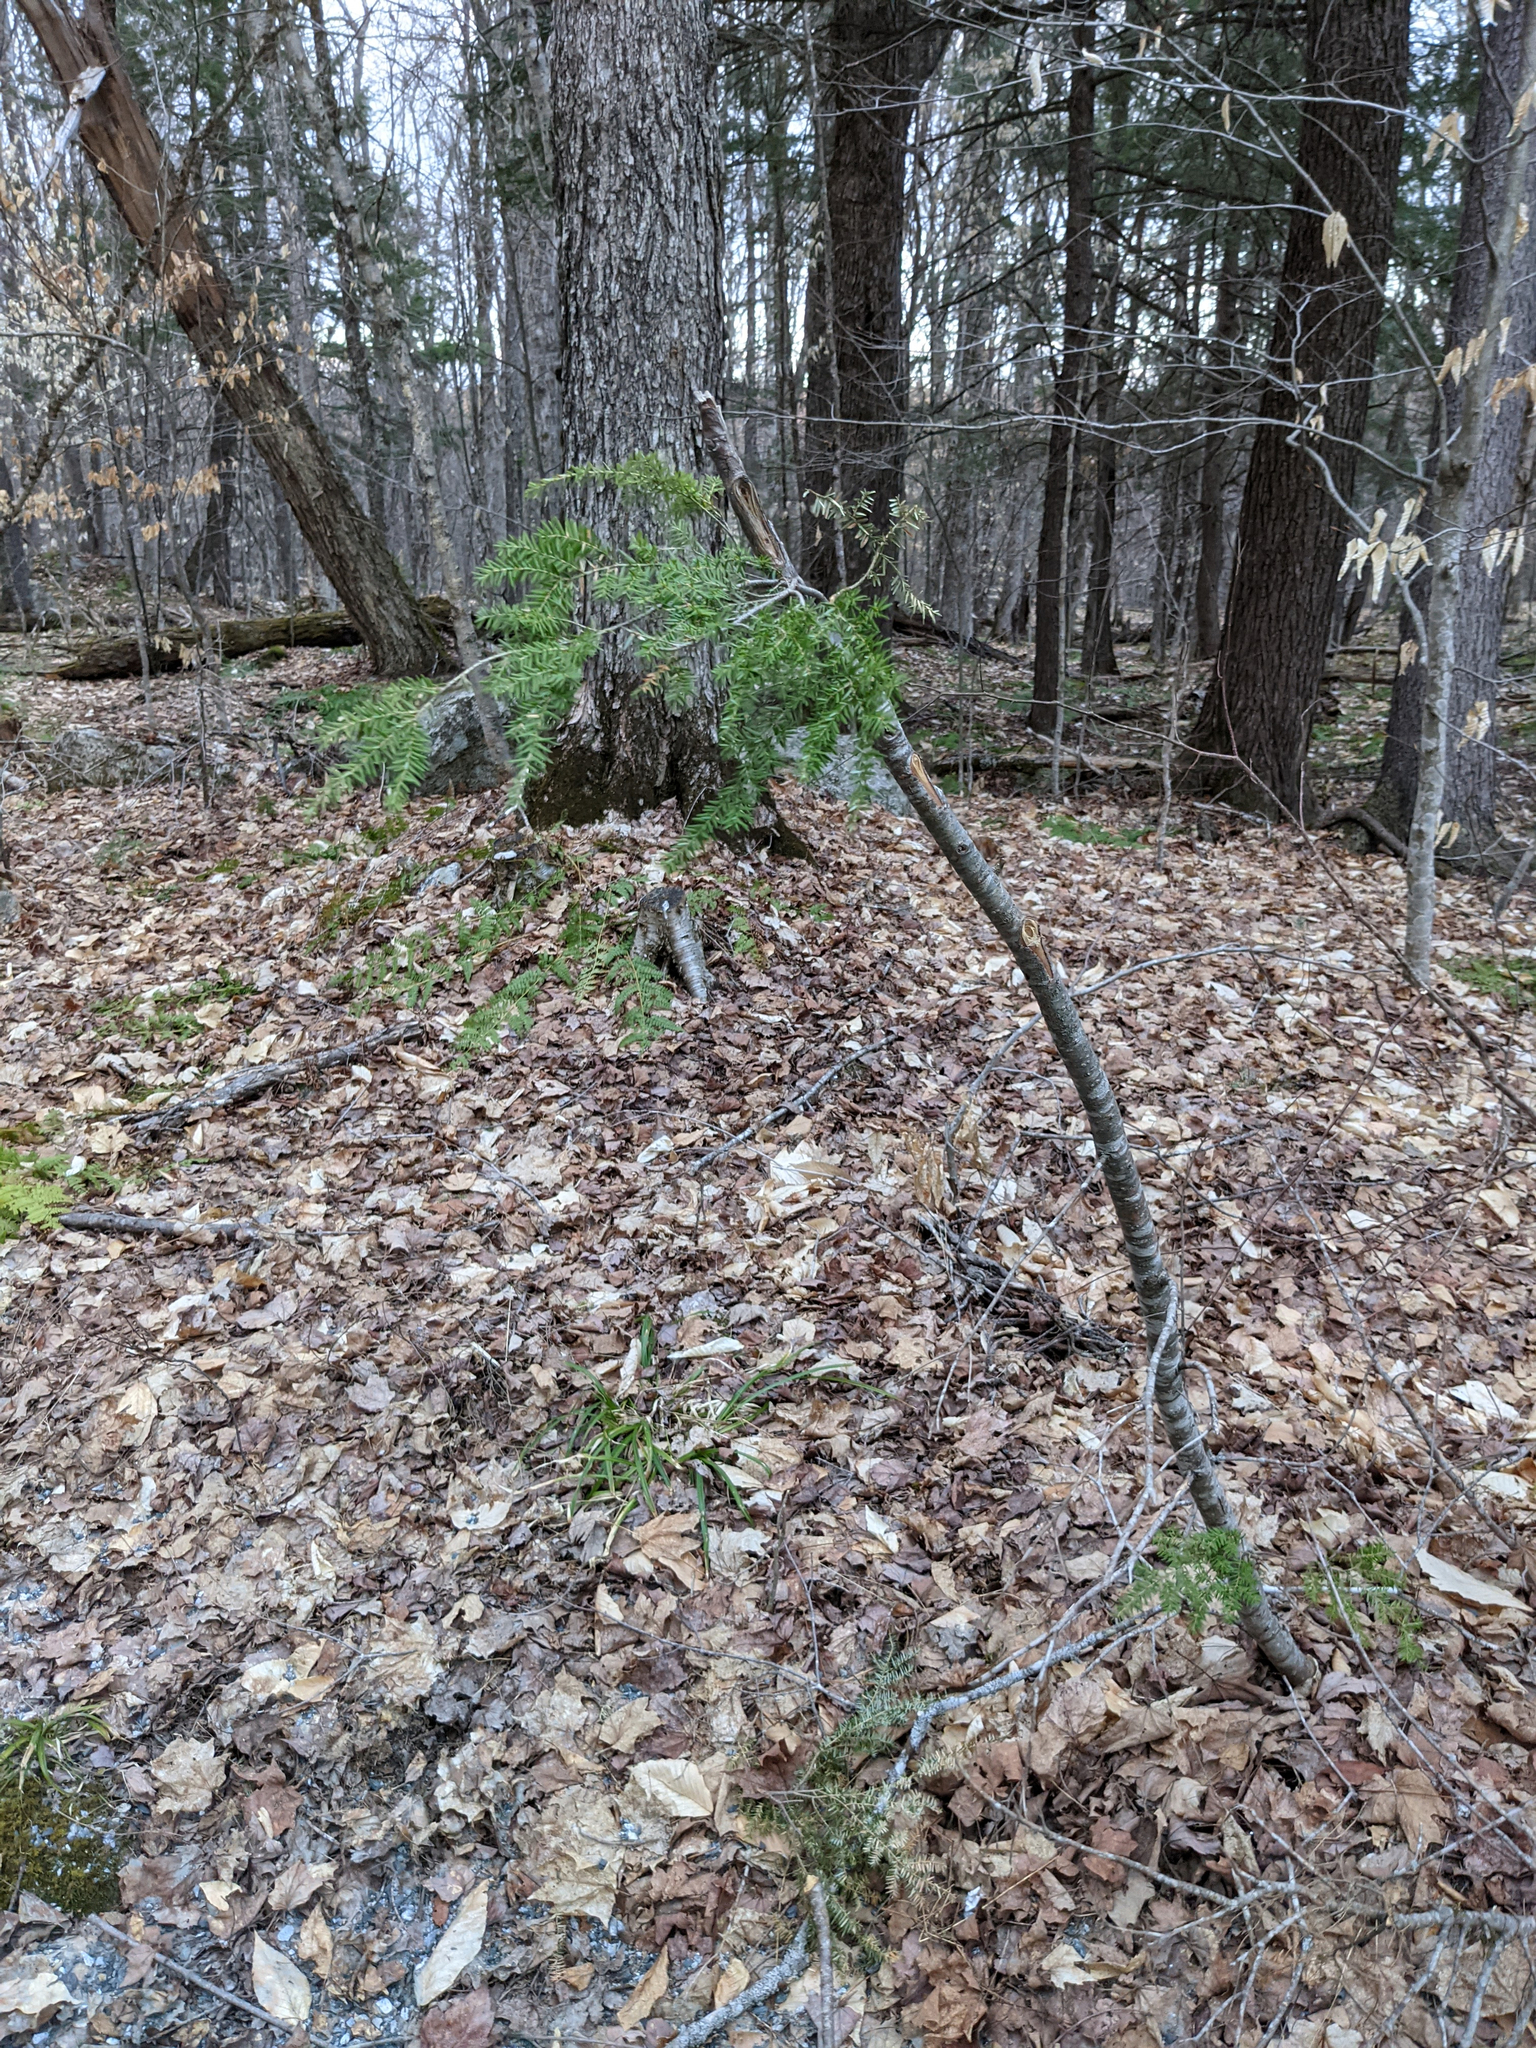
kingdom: Plantae
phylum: Tracheophyta
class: Pinopsida
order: Pinales
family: Pinaceae
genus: Tsuga
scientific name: Tsuga canadensis
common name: Eastern hemlock
